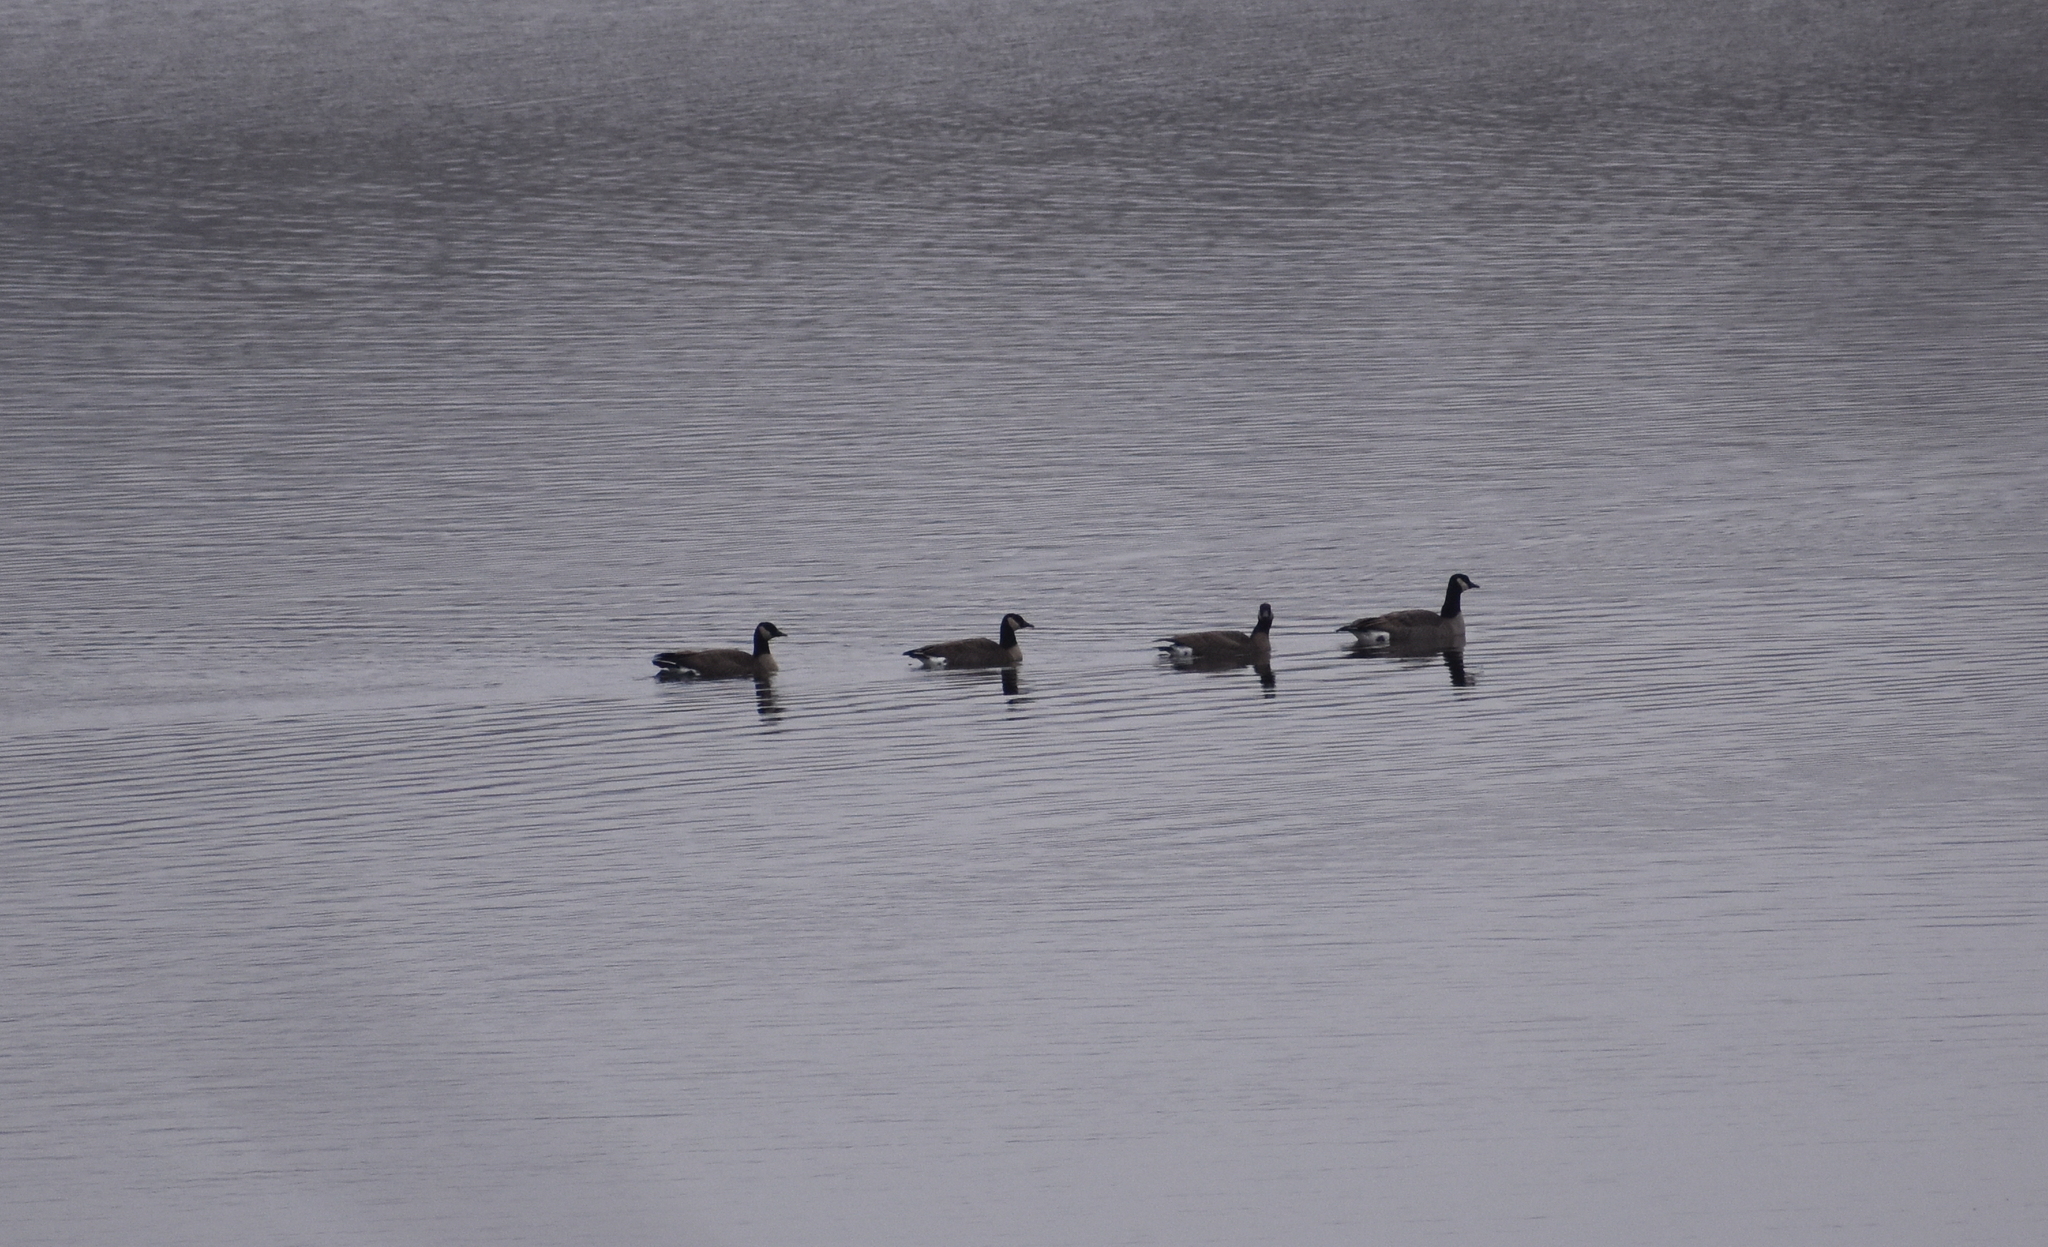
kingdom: Animalia
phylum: Chordata
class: Aves
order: Anseriformes
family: Anatidae
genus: Branta
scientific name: Branta hutchinsii
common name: Cackling goose
